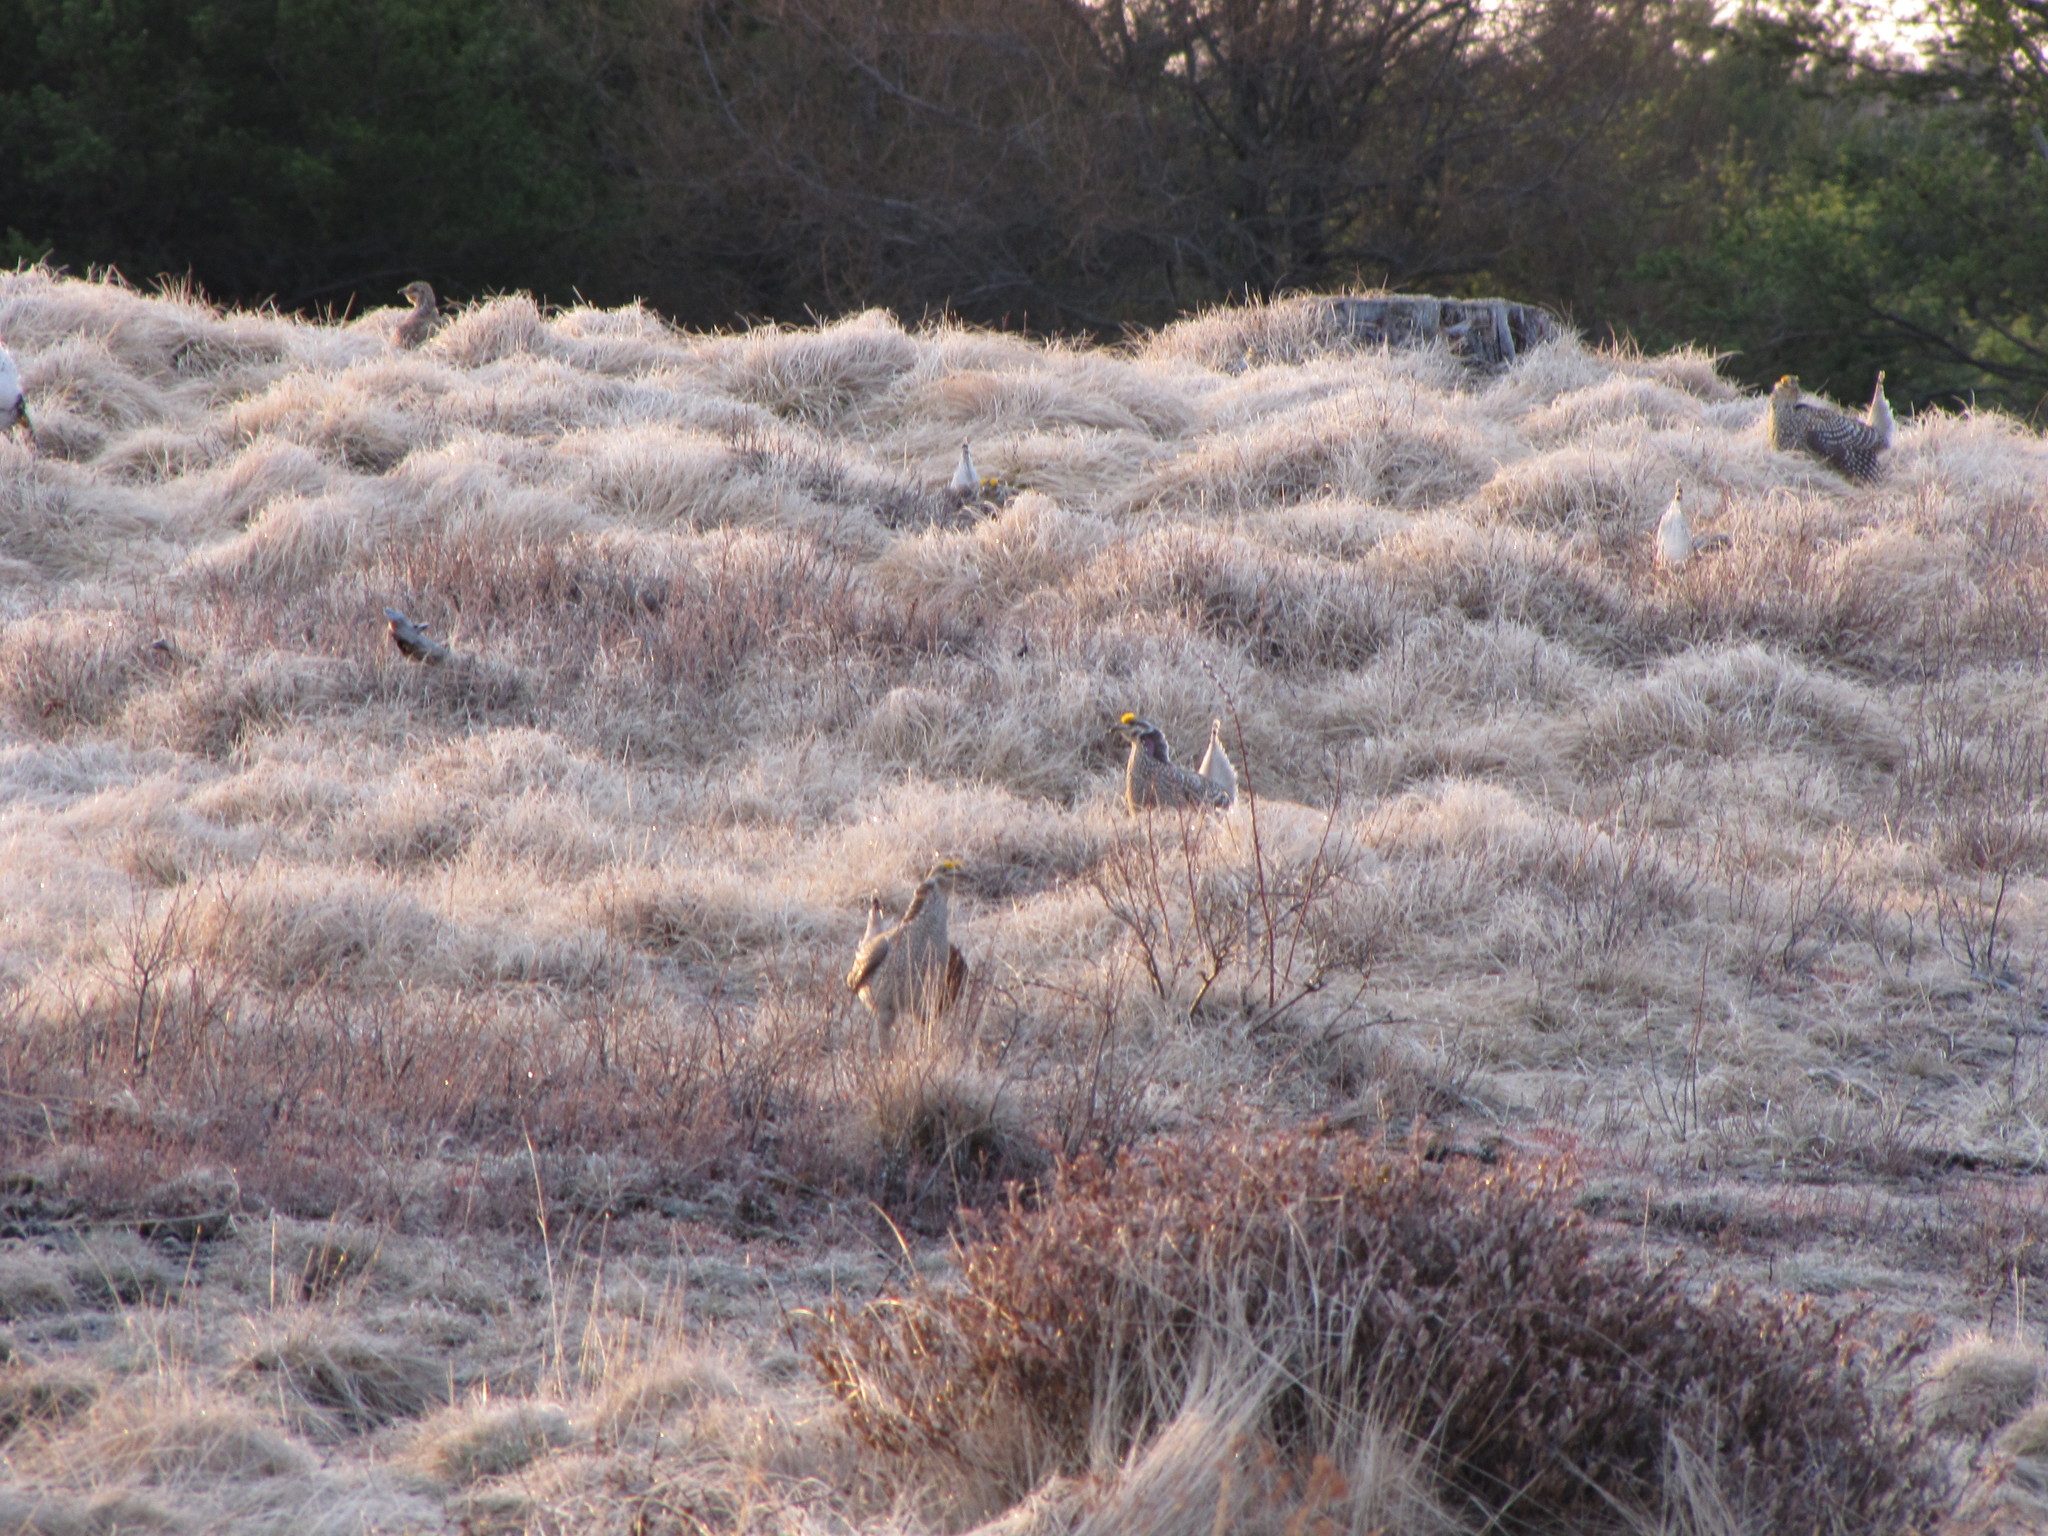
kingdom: Animalia
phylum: Chordata
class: Aves
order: Galliformes
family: Phasianidae
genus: Tympanuchus
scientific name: Tympanuchus phasianellus
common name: Sharp-tailed grouse
